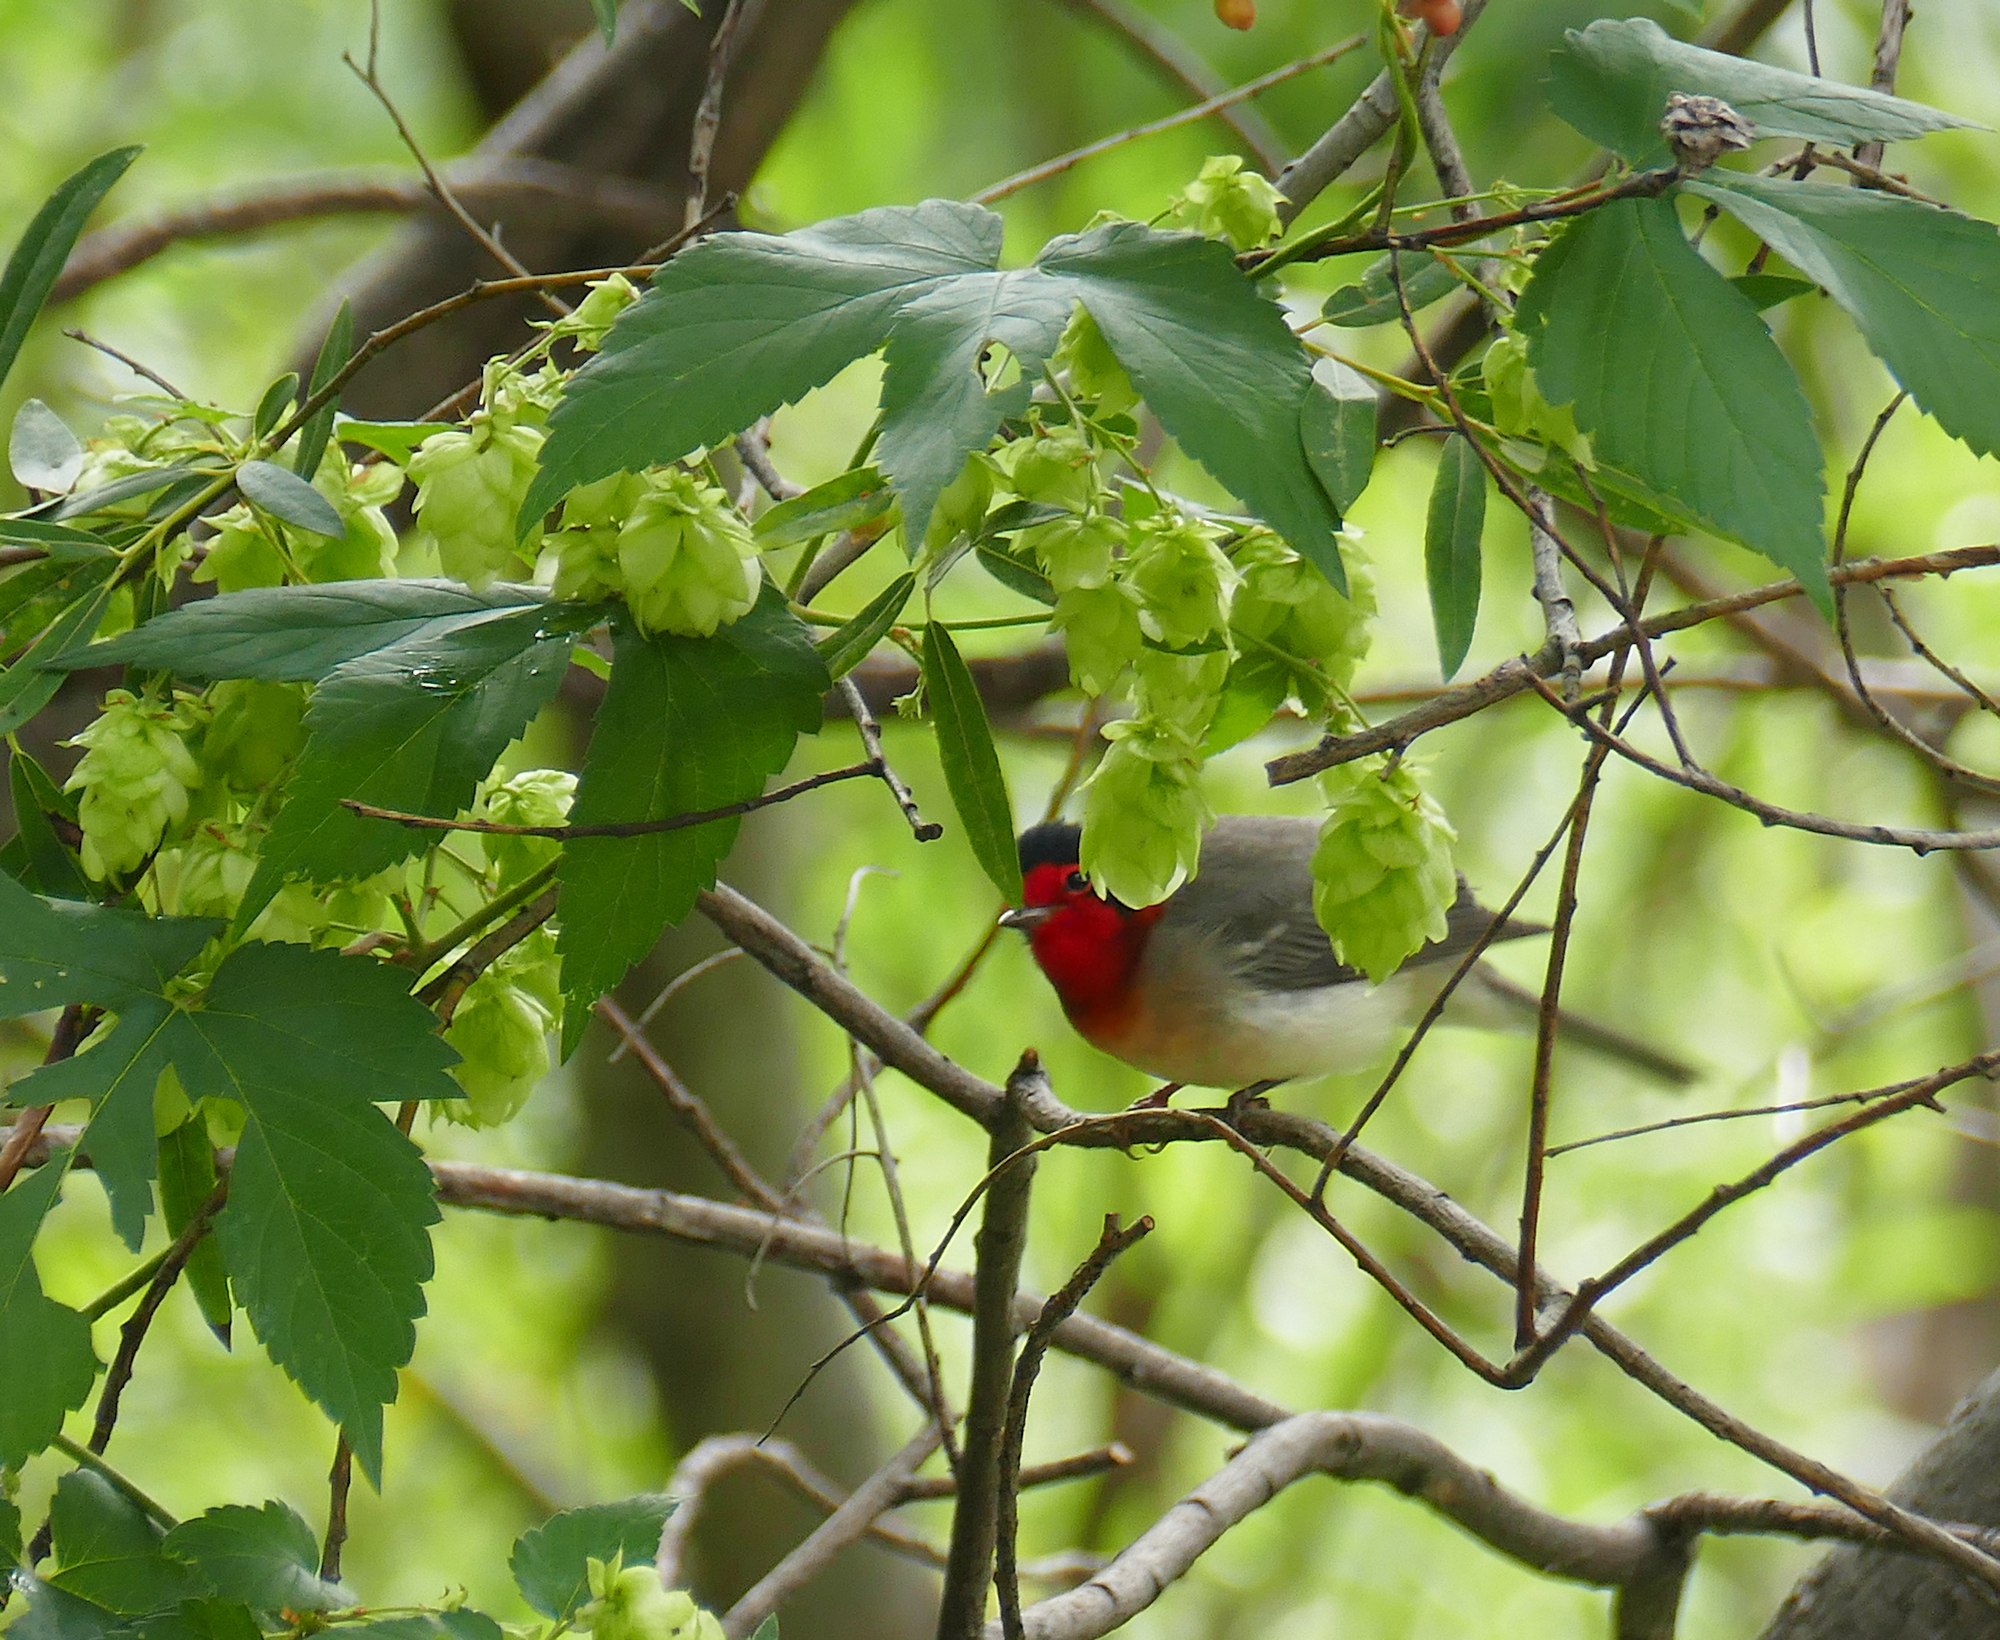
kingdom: Animalia
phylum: Chordata
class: Aves
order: Passeriformes
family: Parulidae
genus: Cardellina
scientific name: Cardellina rubrifrons
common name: Red-faced warbler
